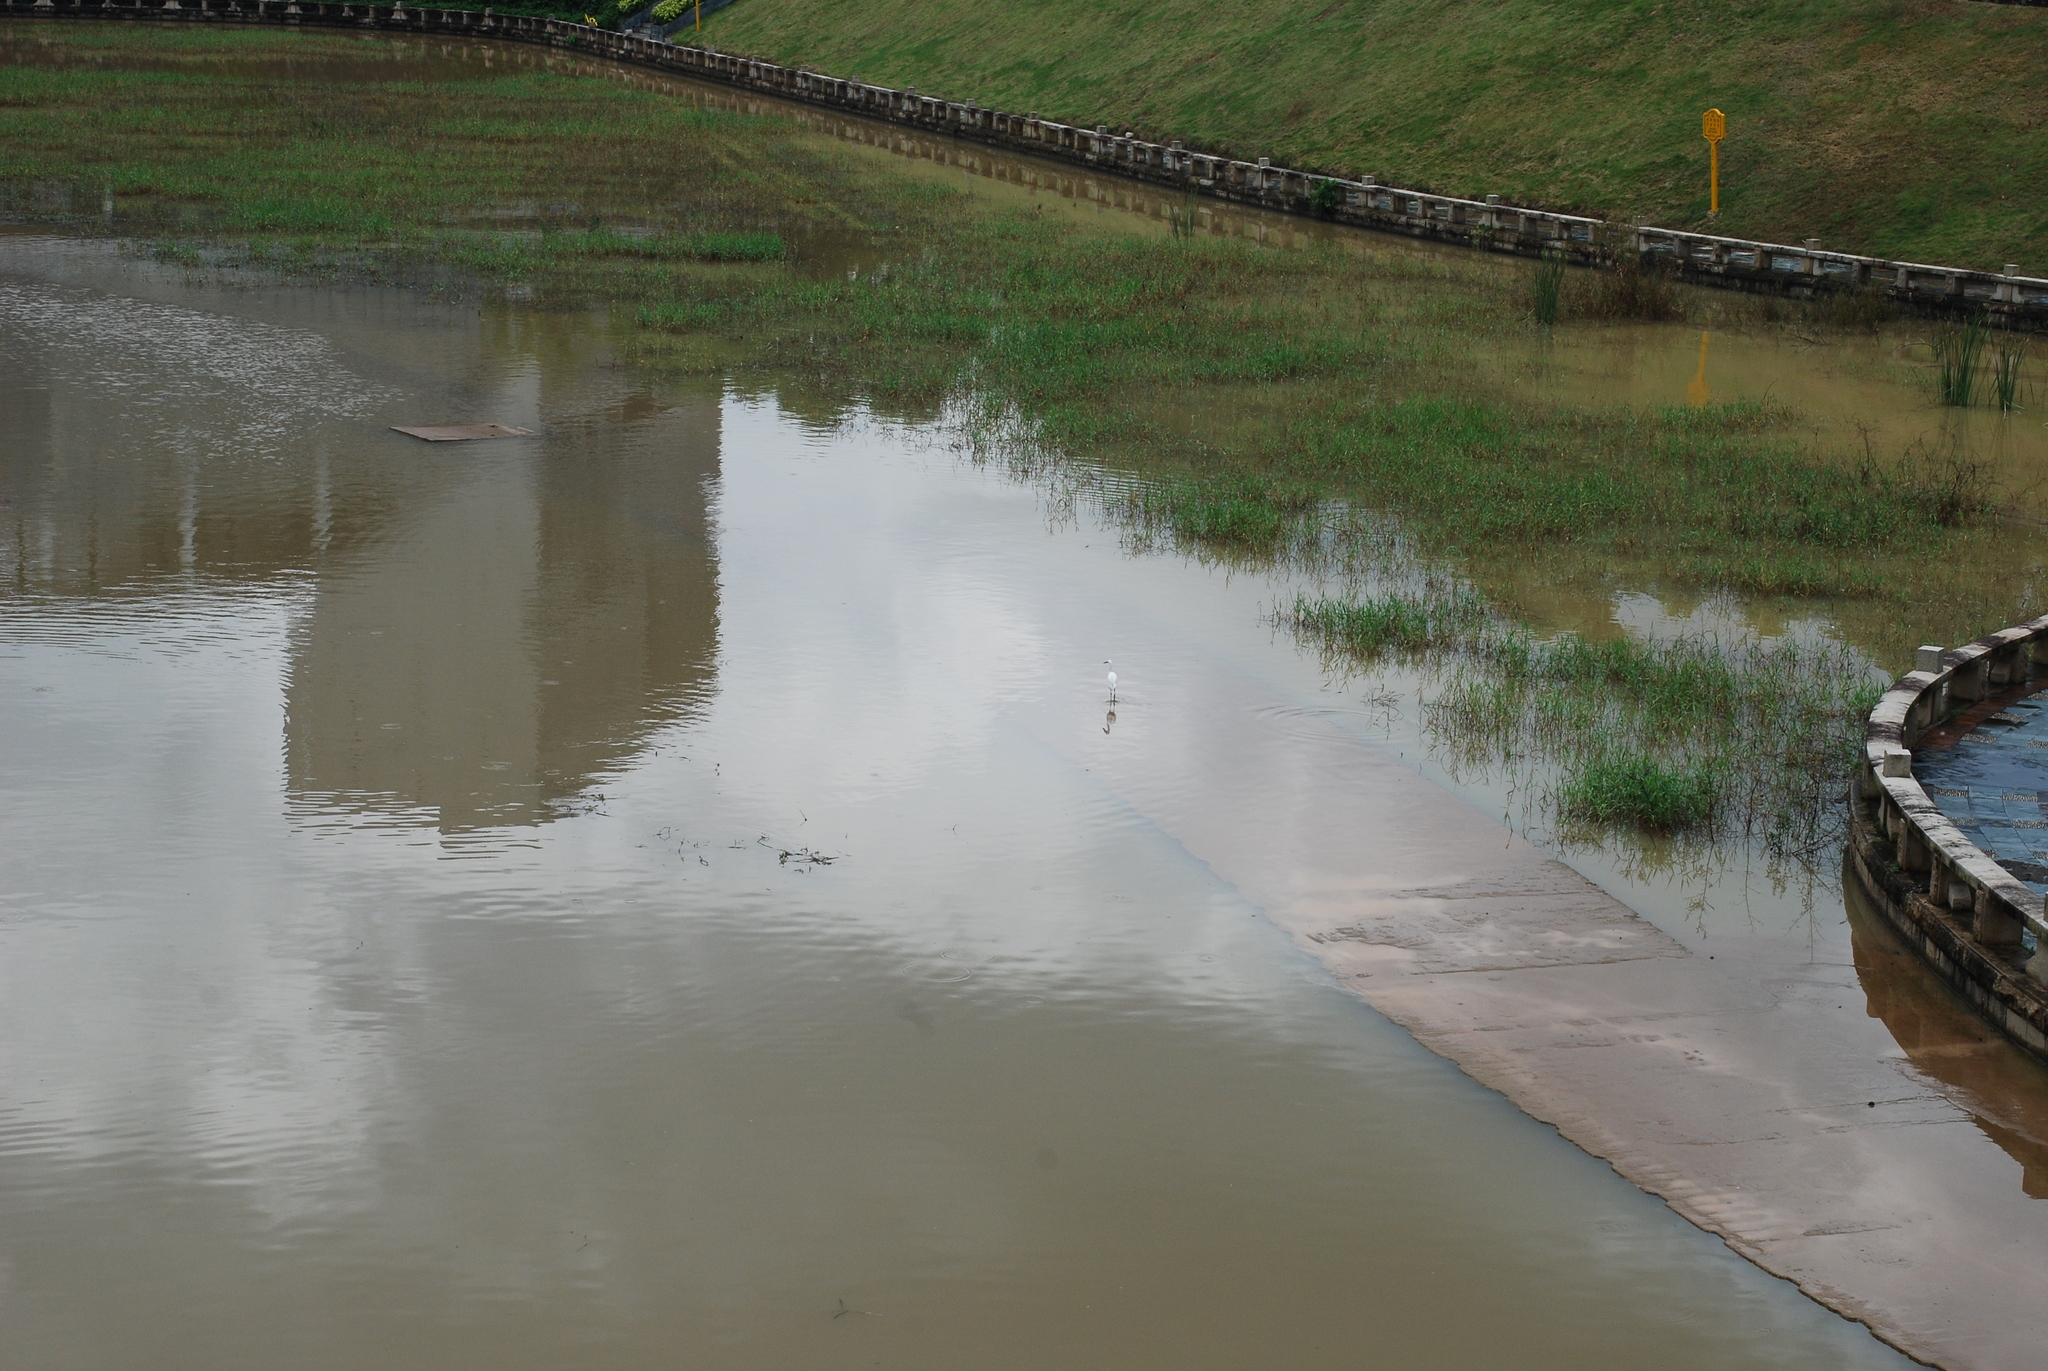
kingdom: Animalia
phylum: Chordata
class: Aves
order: Pelecaniformes
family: Ardeidae
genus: Egretta
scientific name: Egretta garzetta
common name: Little egret
